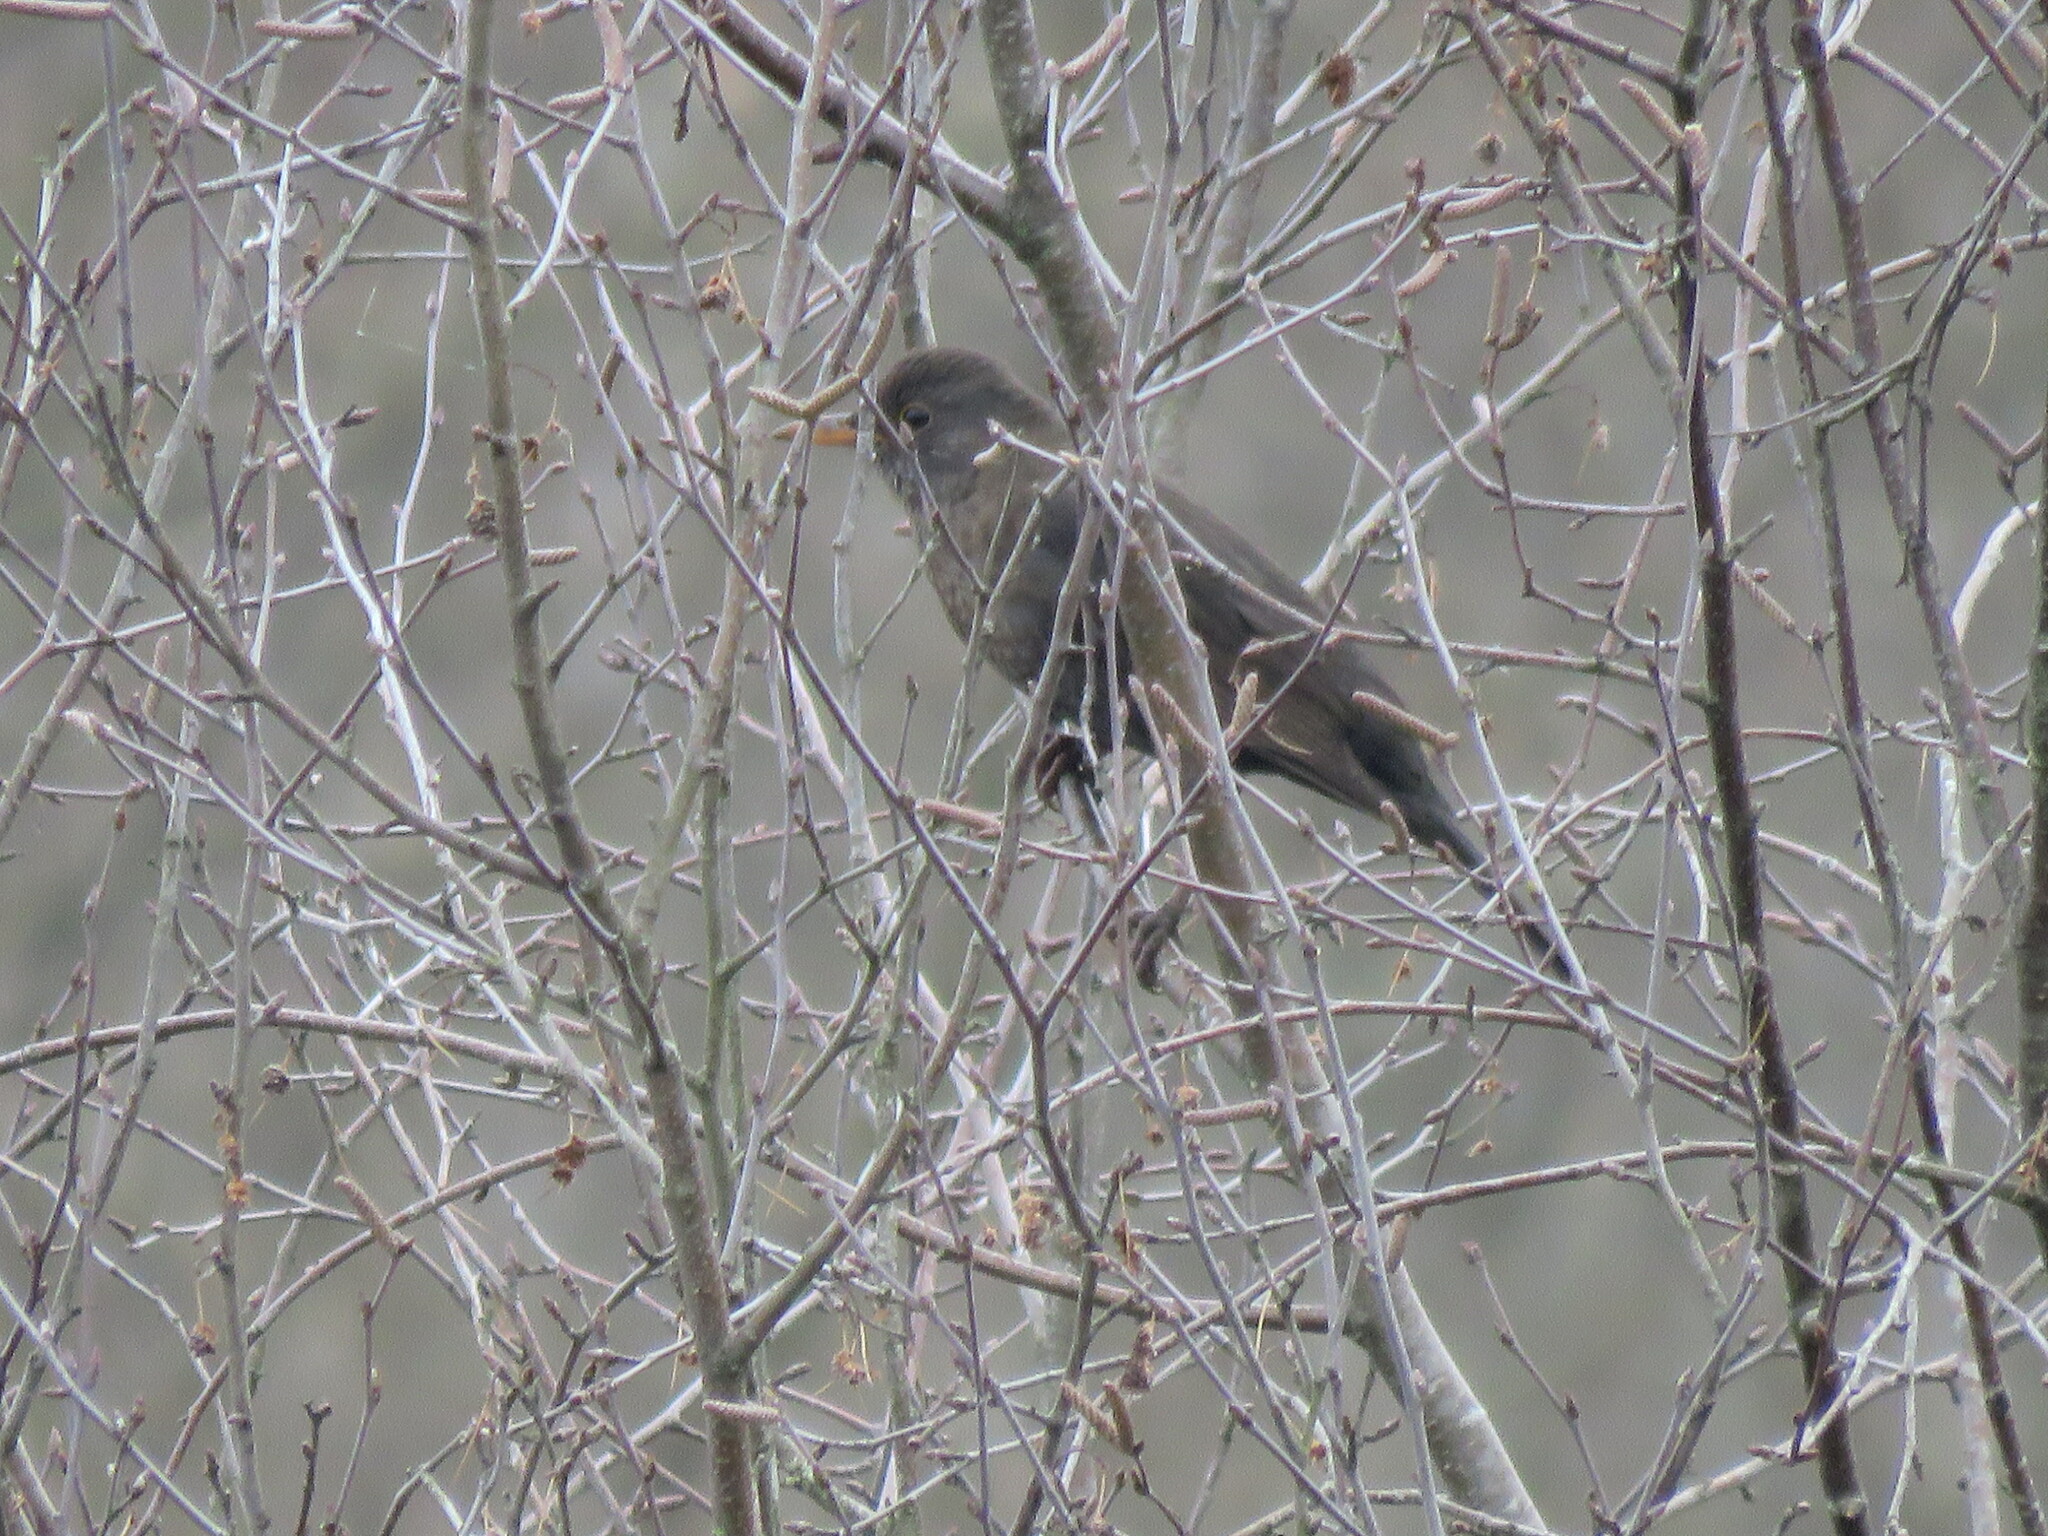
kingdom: Animalia
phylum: Chordata
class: Aves
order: Passeriformes
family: Turdidae
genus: Turdus
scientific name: Turdus merula
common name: Common blackbird
